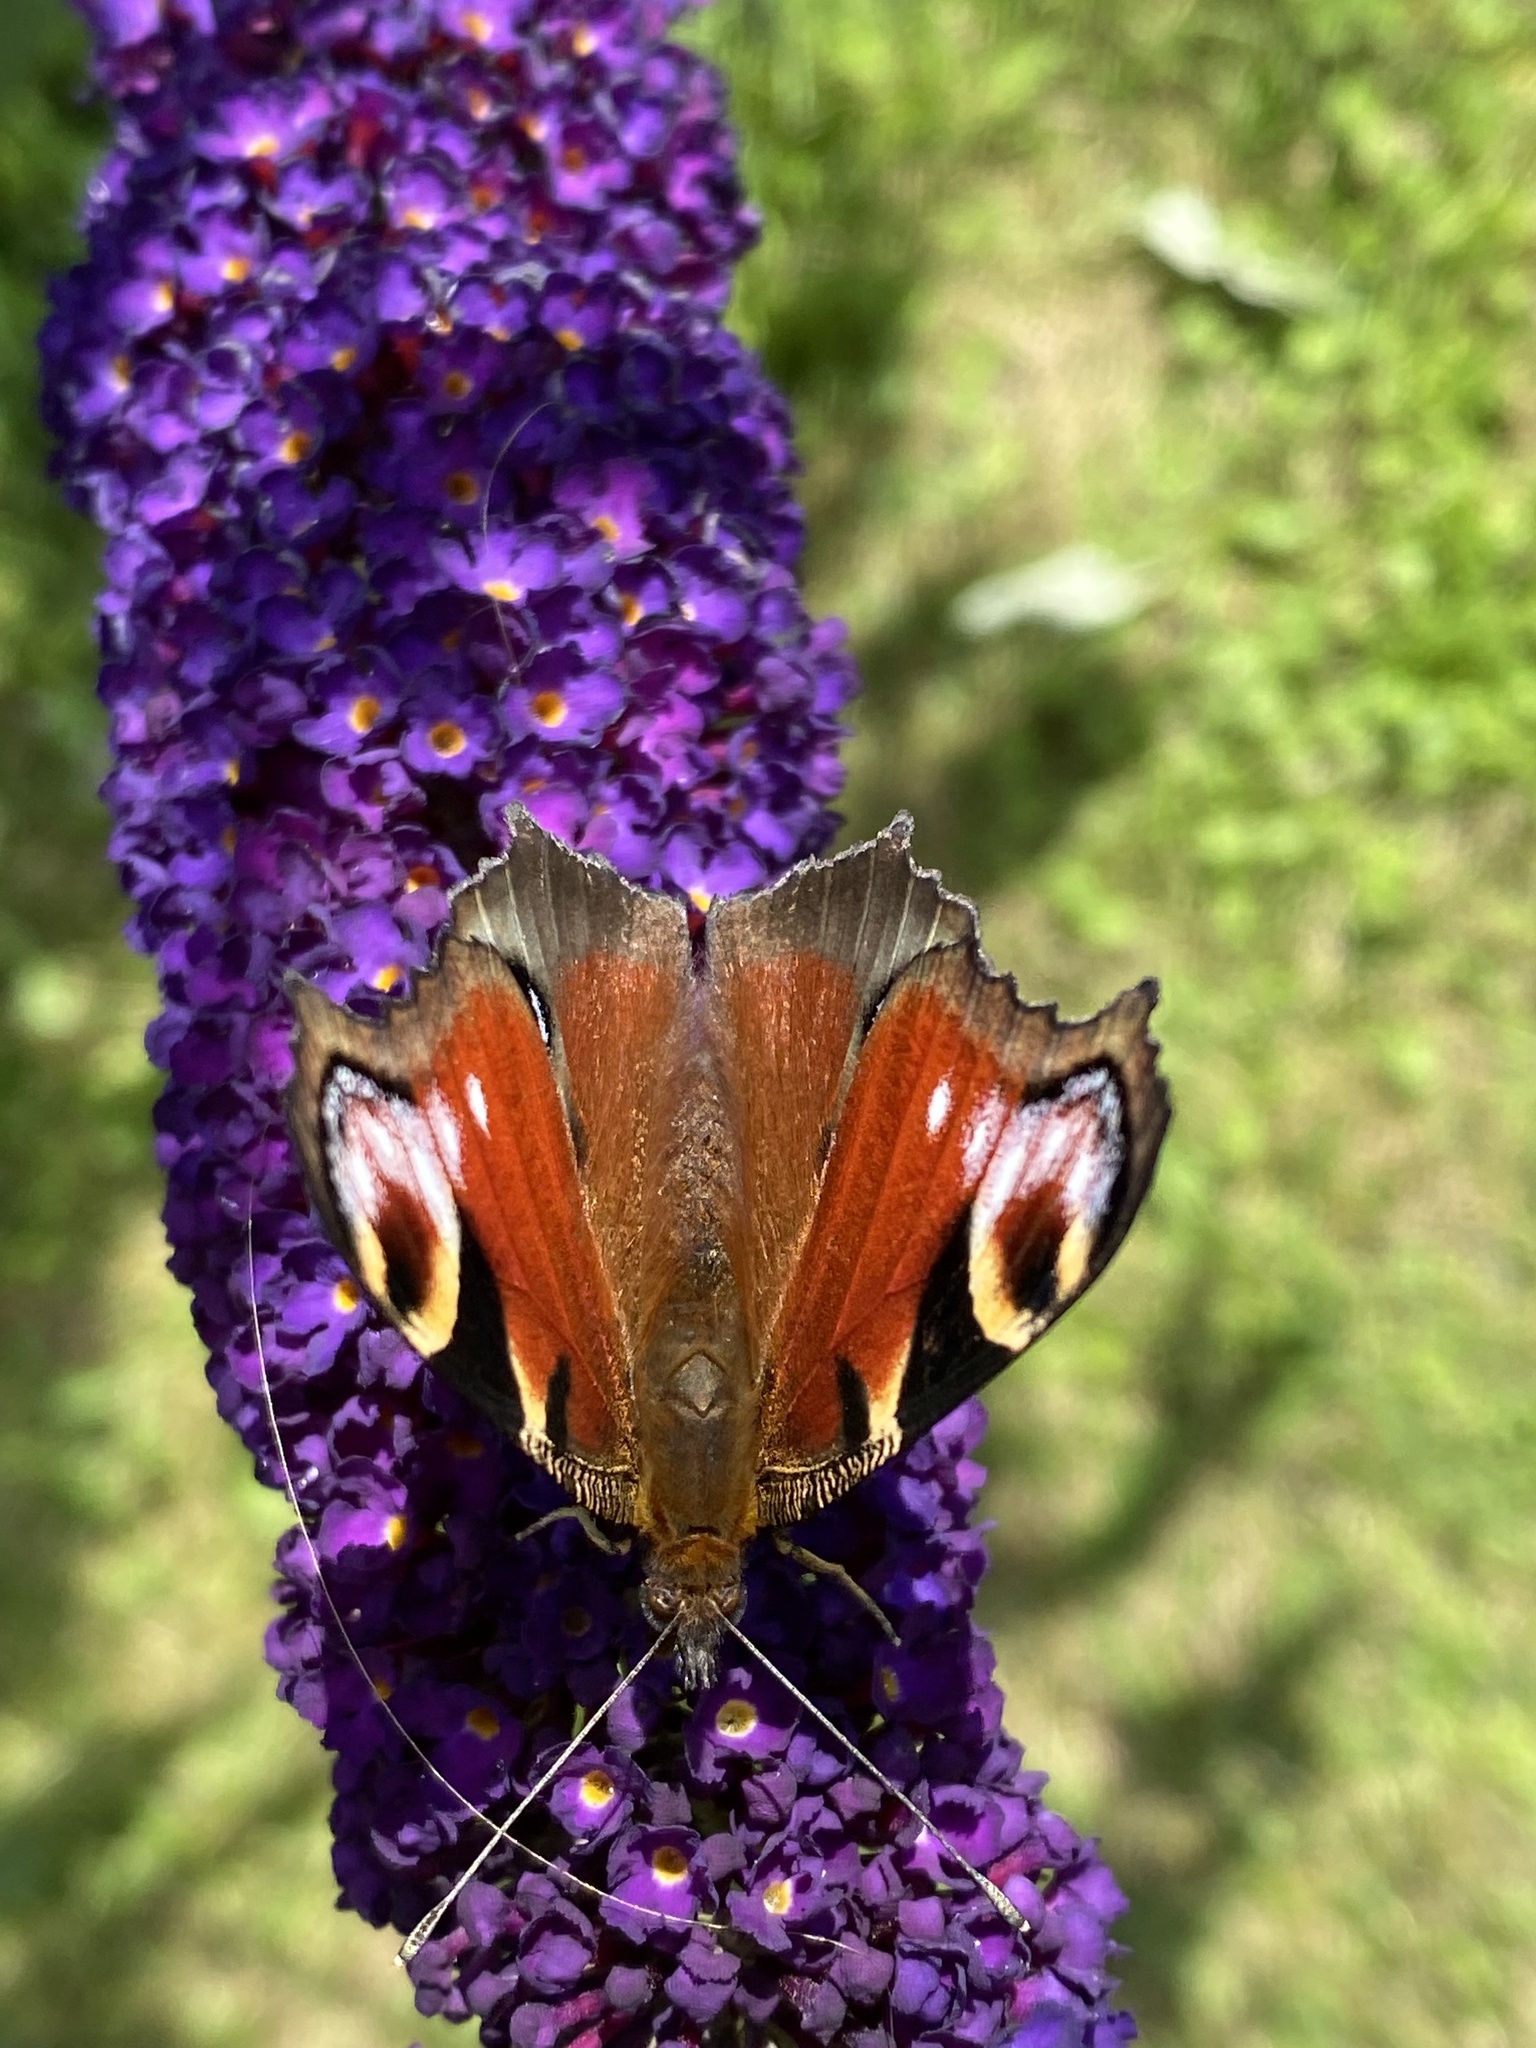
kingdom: Animalia
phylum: Arthropoda
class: Insecta
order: Lepidoptera
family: Nymphalidae
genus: Aglais
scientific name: Aglais io
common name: Peacock
